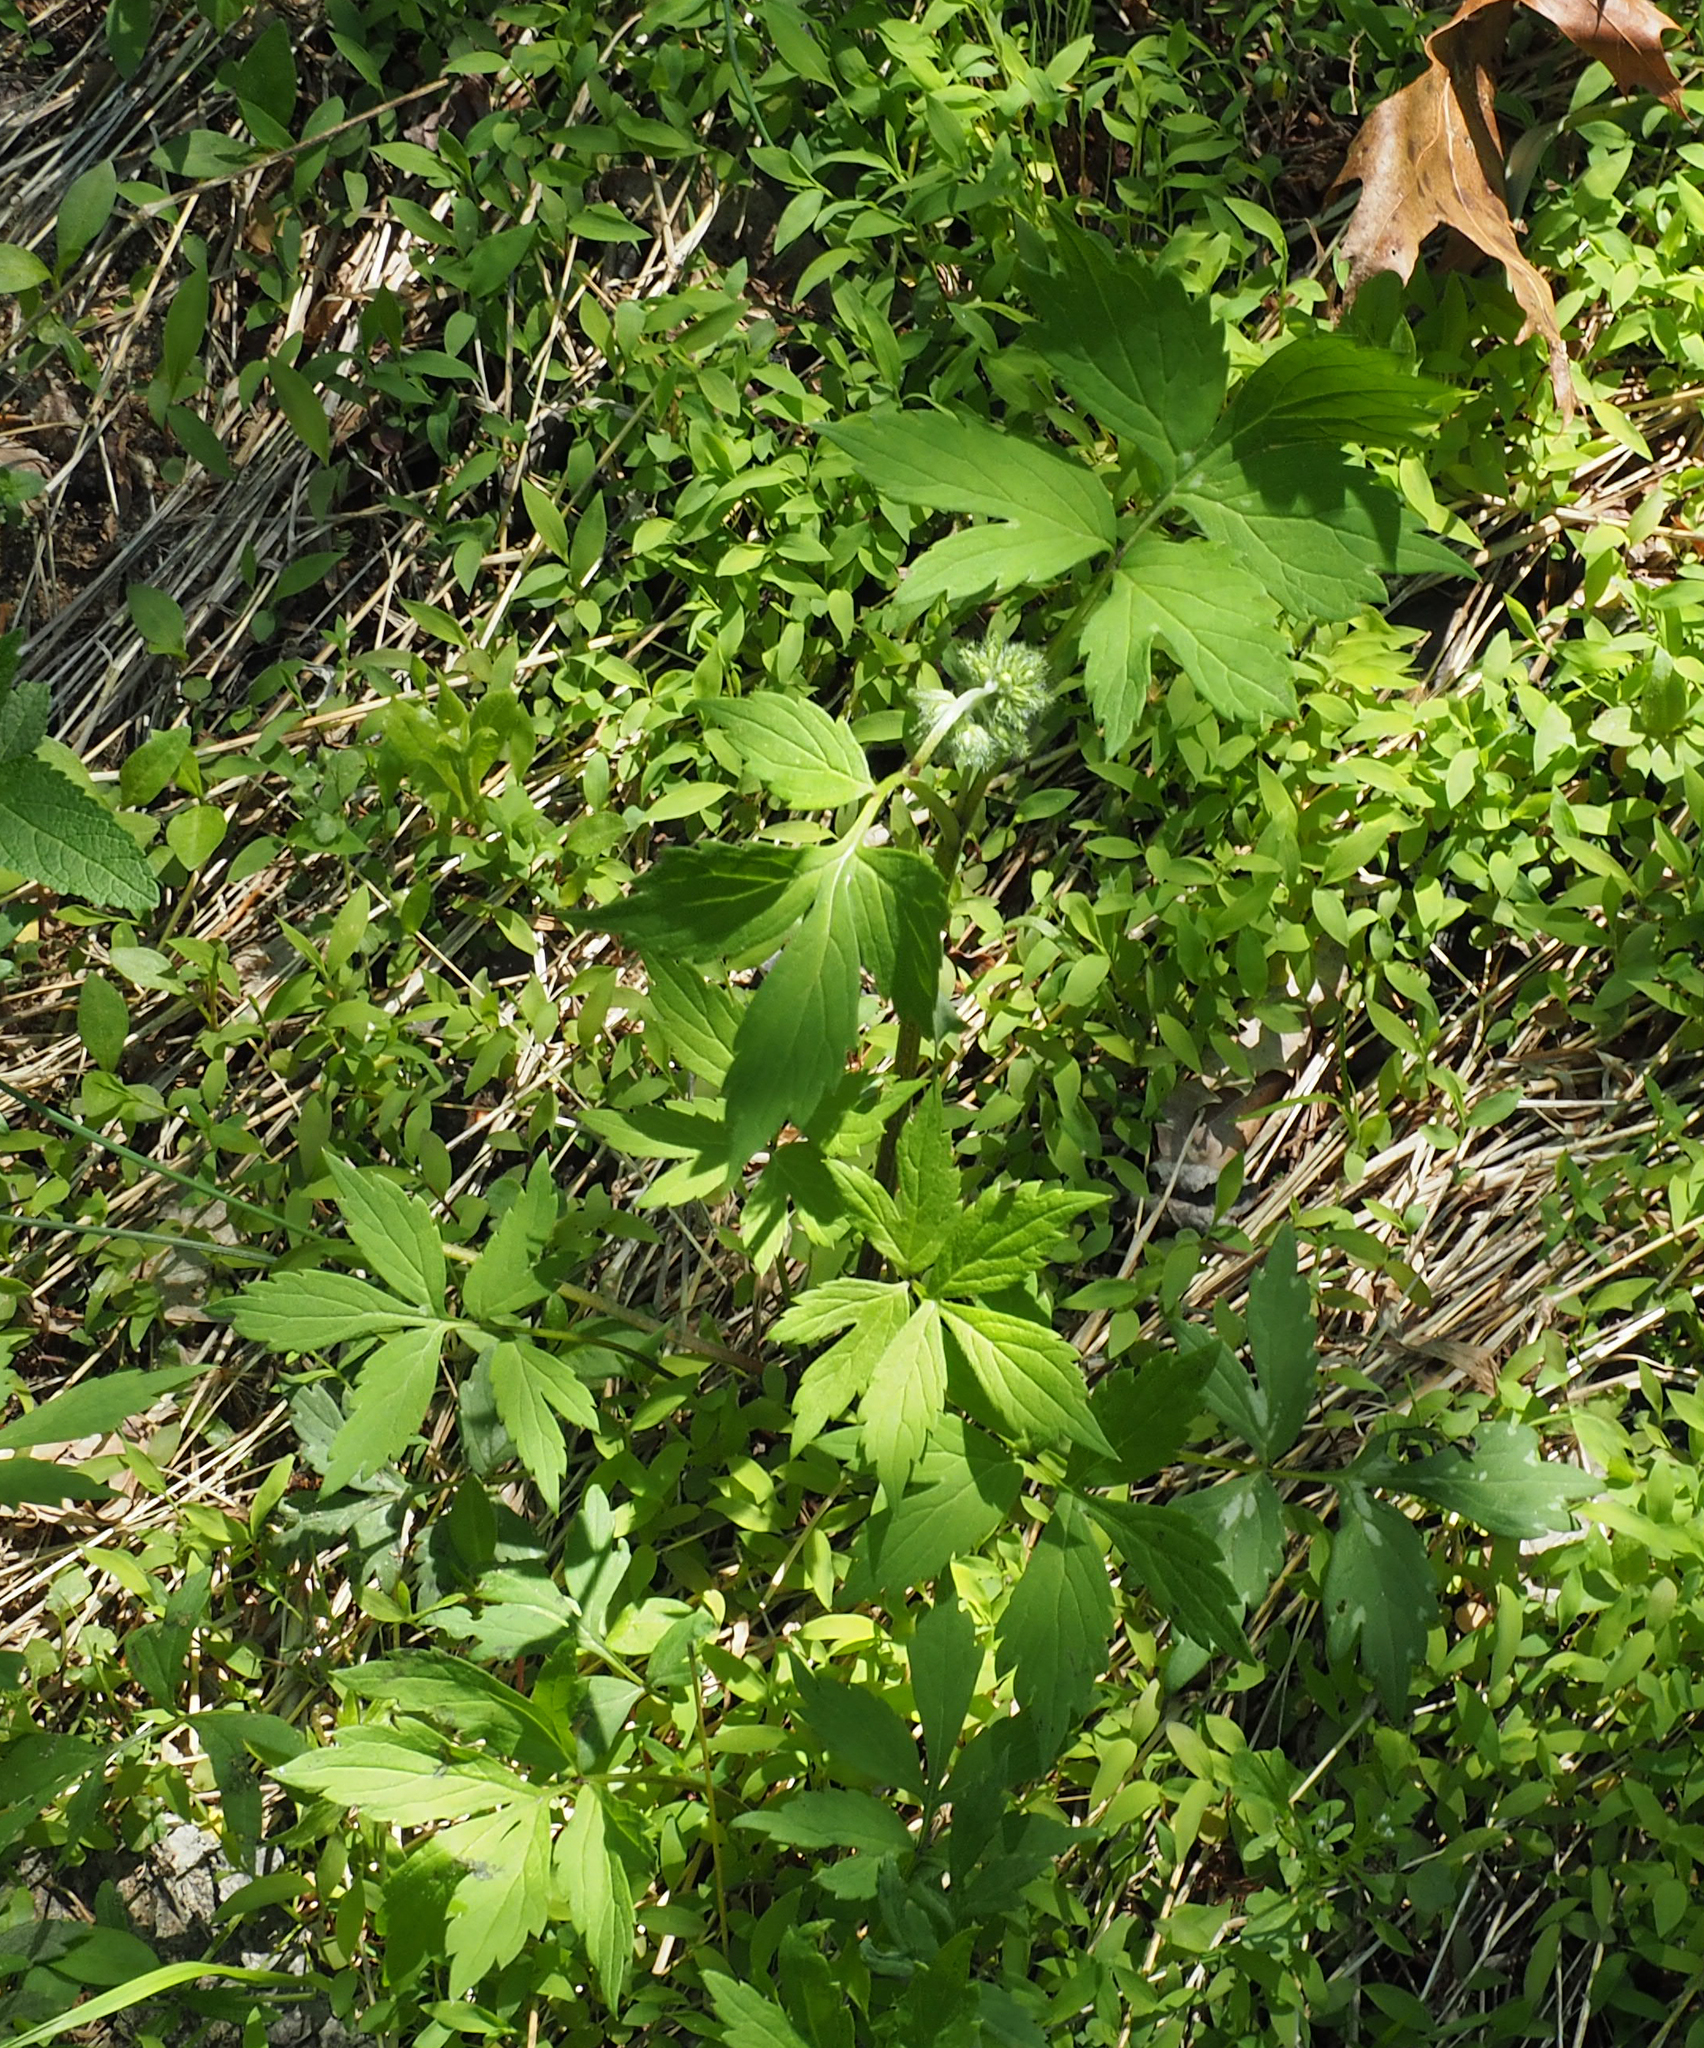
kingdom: Plantae
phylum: Tracheophyta
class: Magnoliopsida
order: Boraginales
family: Hydrophyllaceae
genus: Hydrophyllum
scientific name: Hydrophyllum virginianum
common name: Virginia waterleaf
